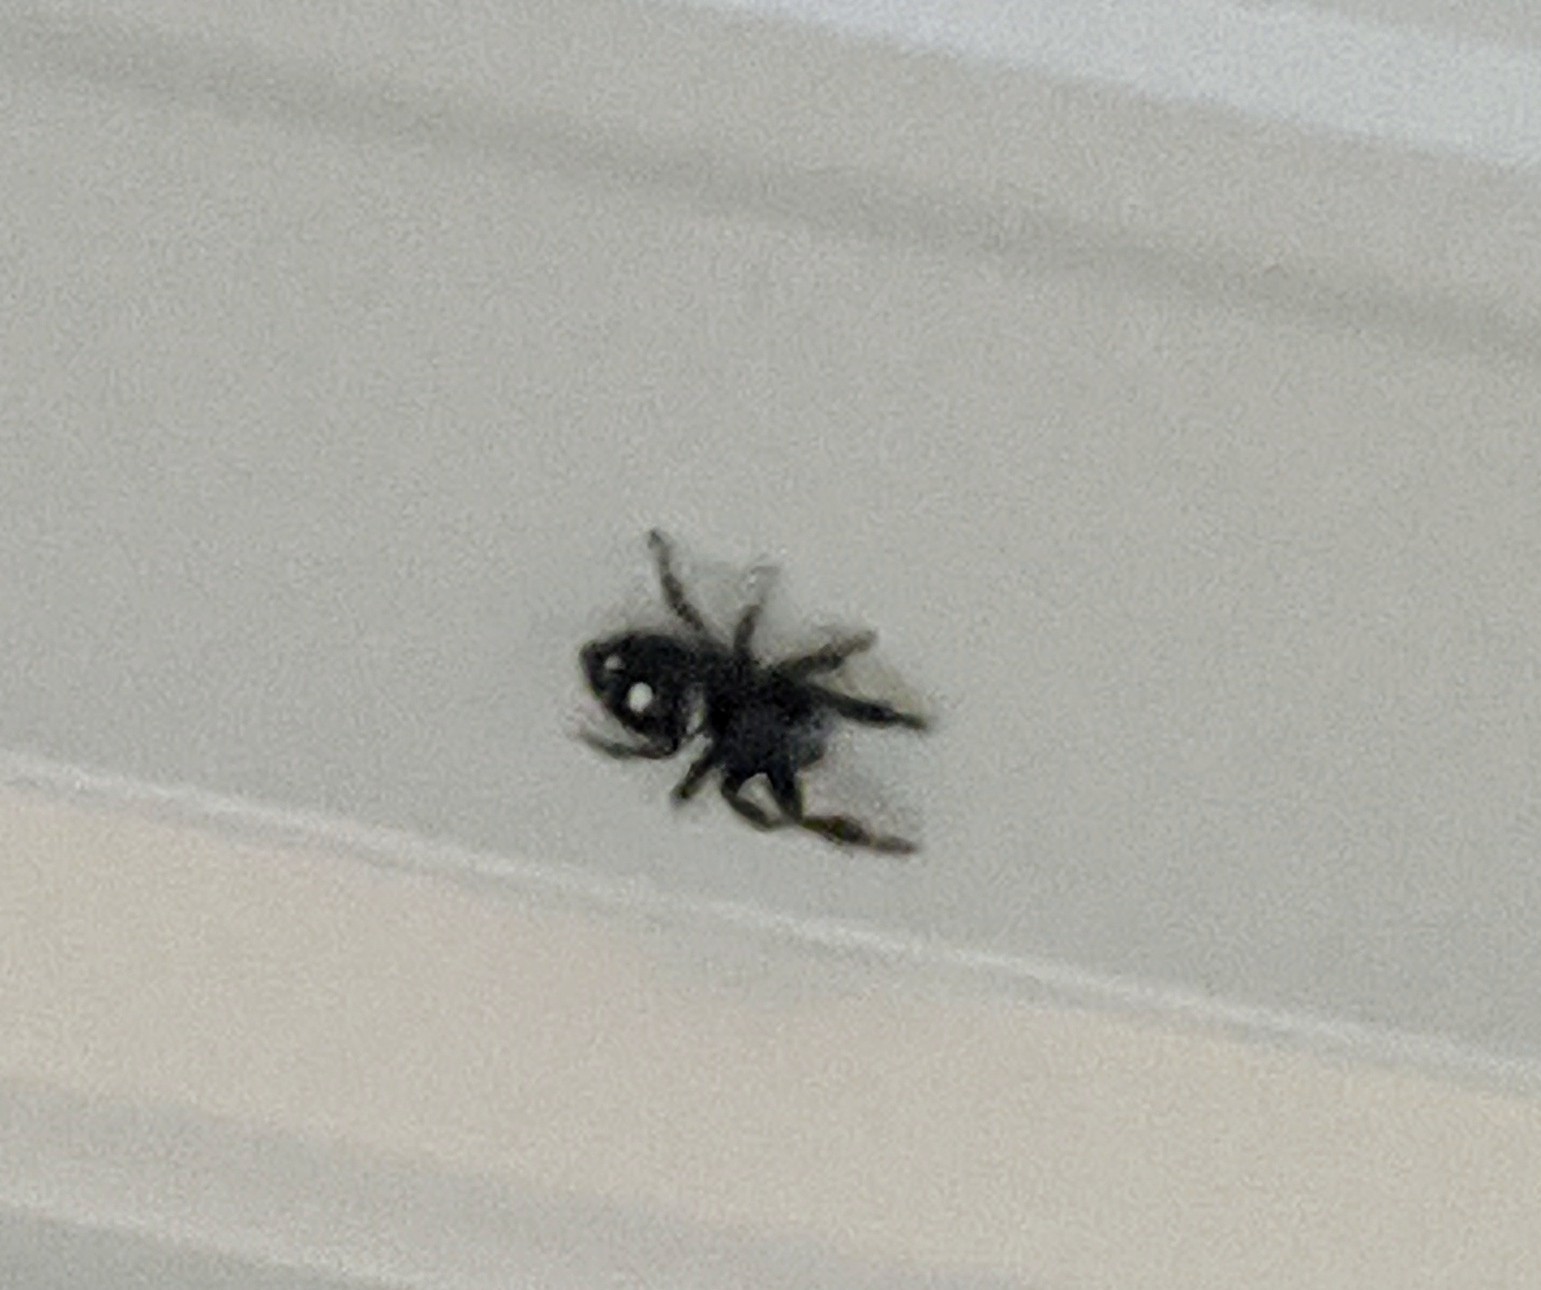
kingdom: Animalia
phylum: Arthropoda
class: Arachnida
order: Araneae
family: Salticidae
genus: Phidippus
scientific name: Phidippus audax
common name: Bold jumper
